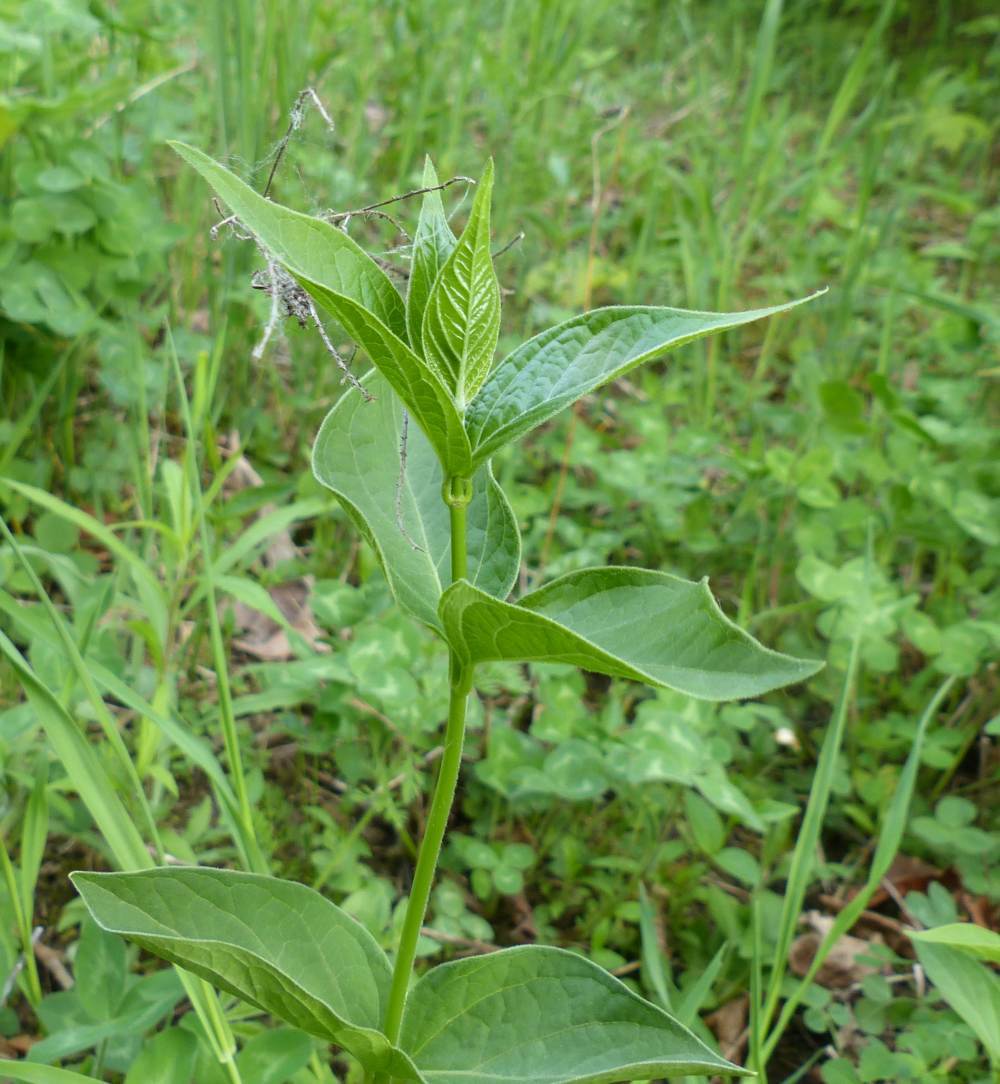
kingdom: Plantae
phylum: Tracheophyta
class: Magnoliopsida
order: Gentianales
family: Apocynaceae
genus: Vincetoxicum
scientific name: Vincetoxicum rossicum
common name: Dog-strangling vine
